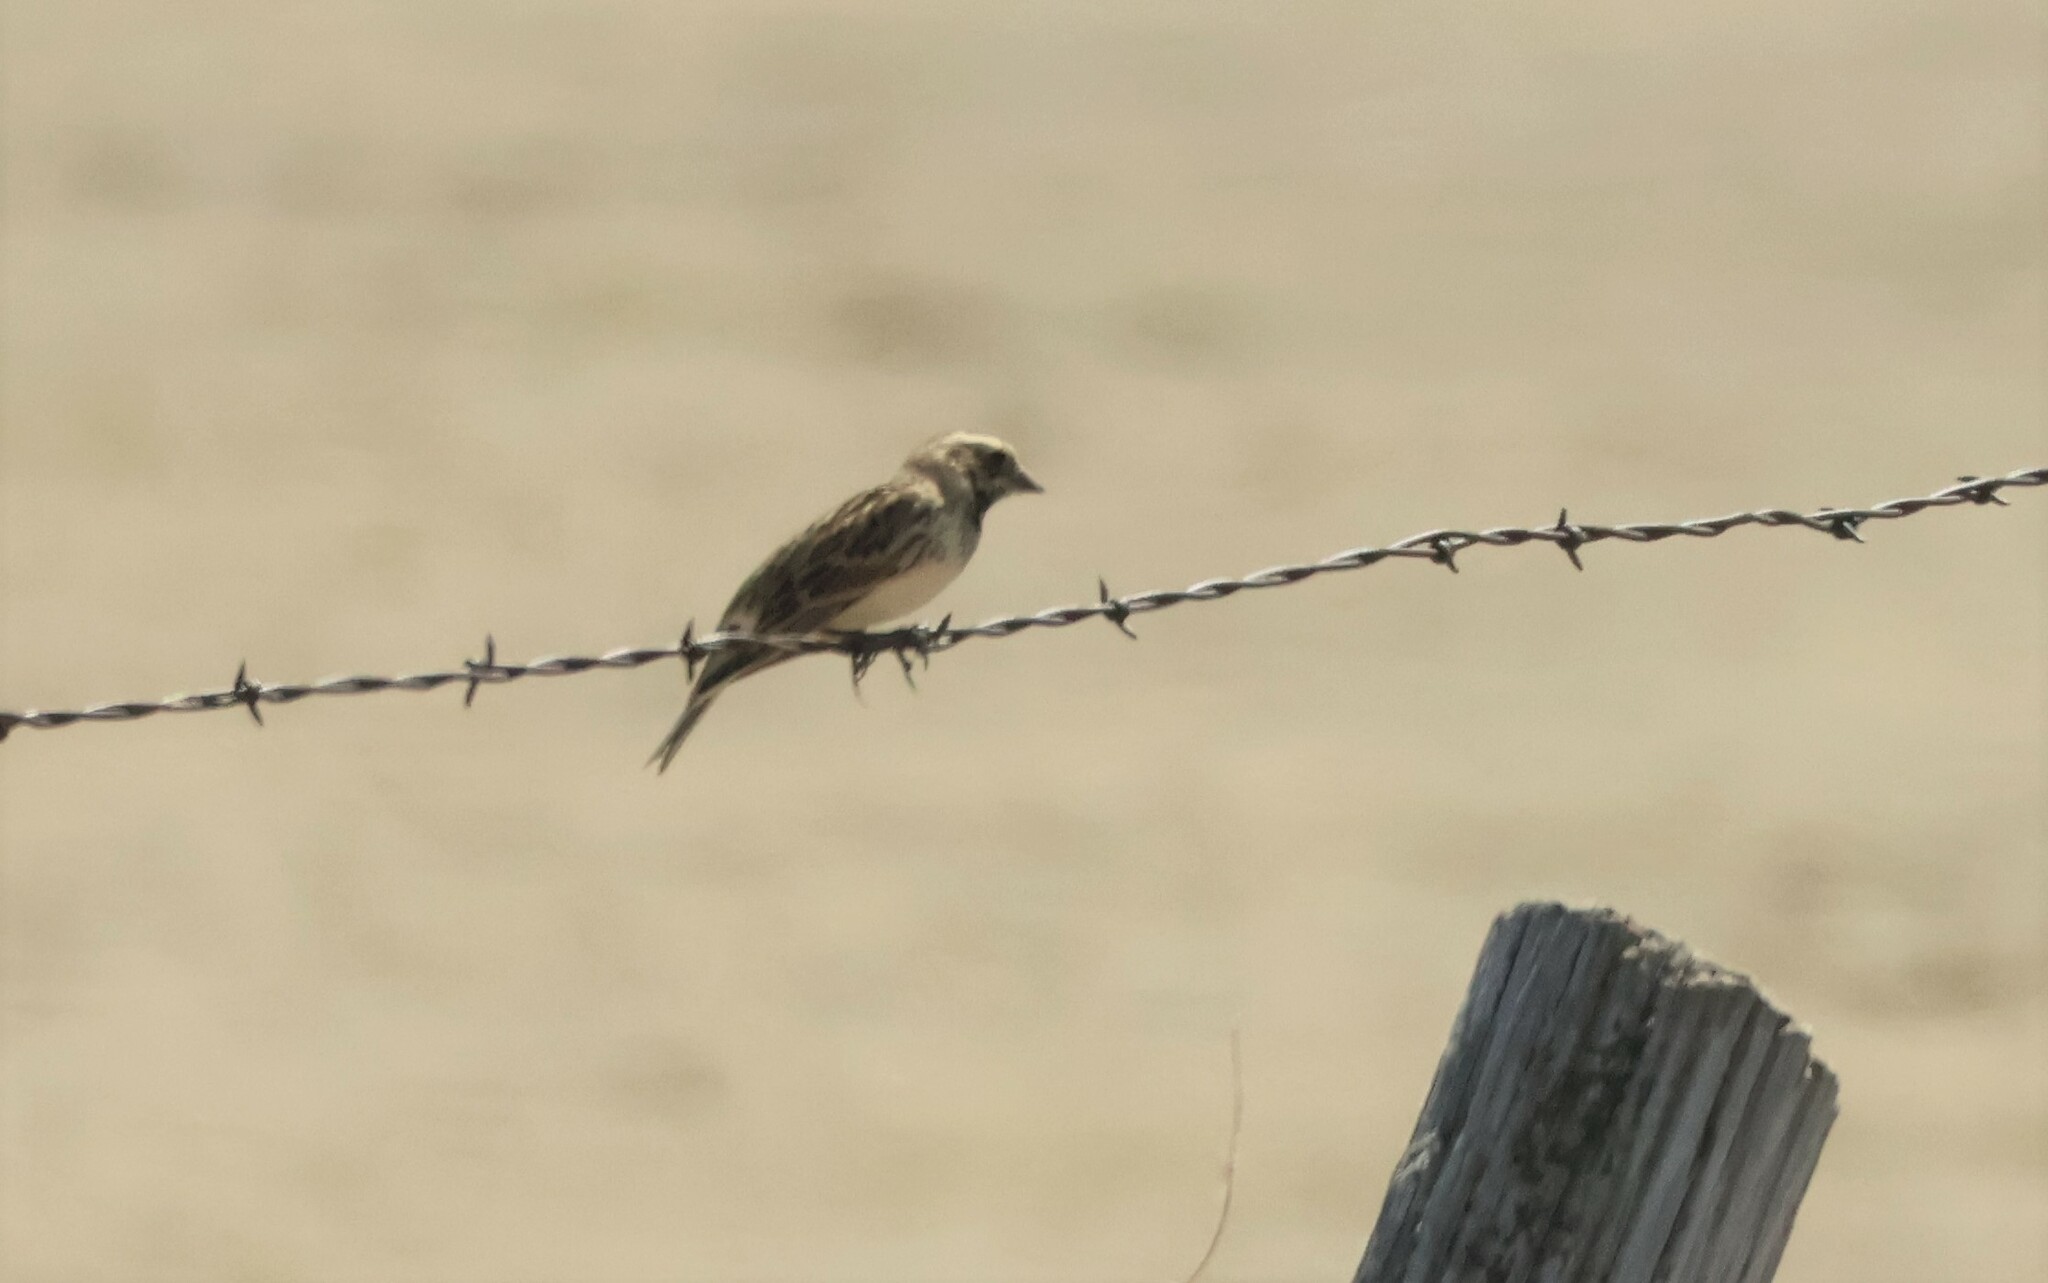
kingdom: Animalia
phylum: Chordata
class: Aves
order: Passeriformes
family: Calcariidae
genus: Calcarius
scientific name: Calcarius lapponicus
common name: Lapland longspur
